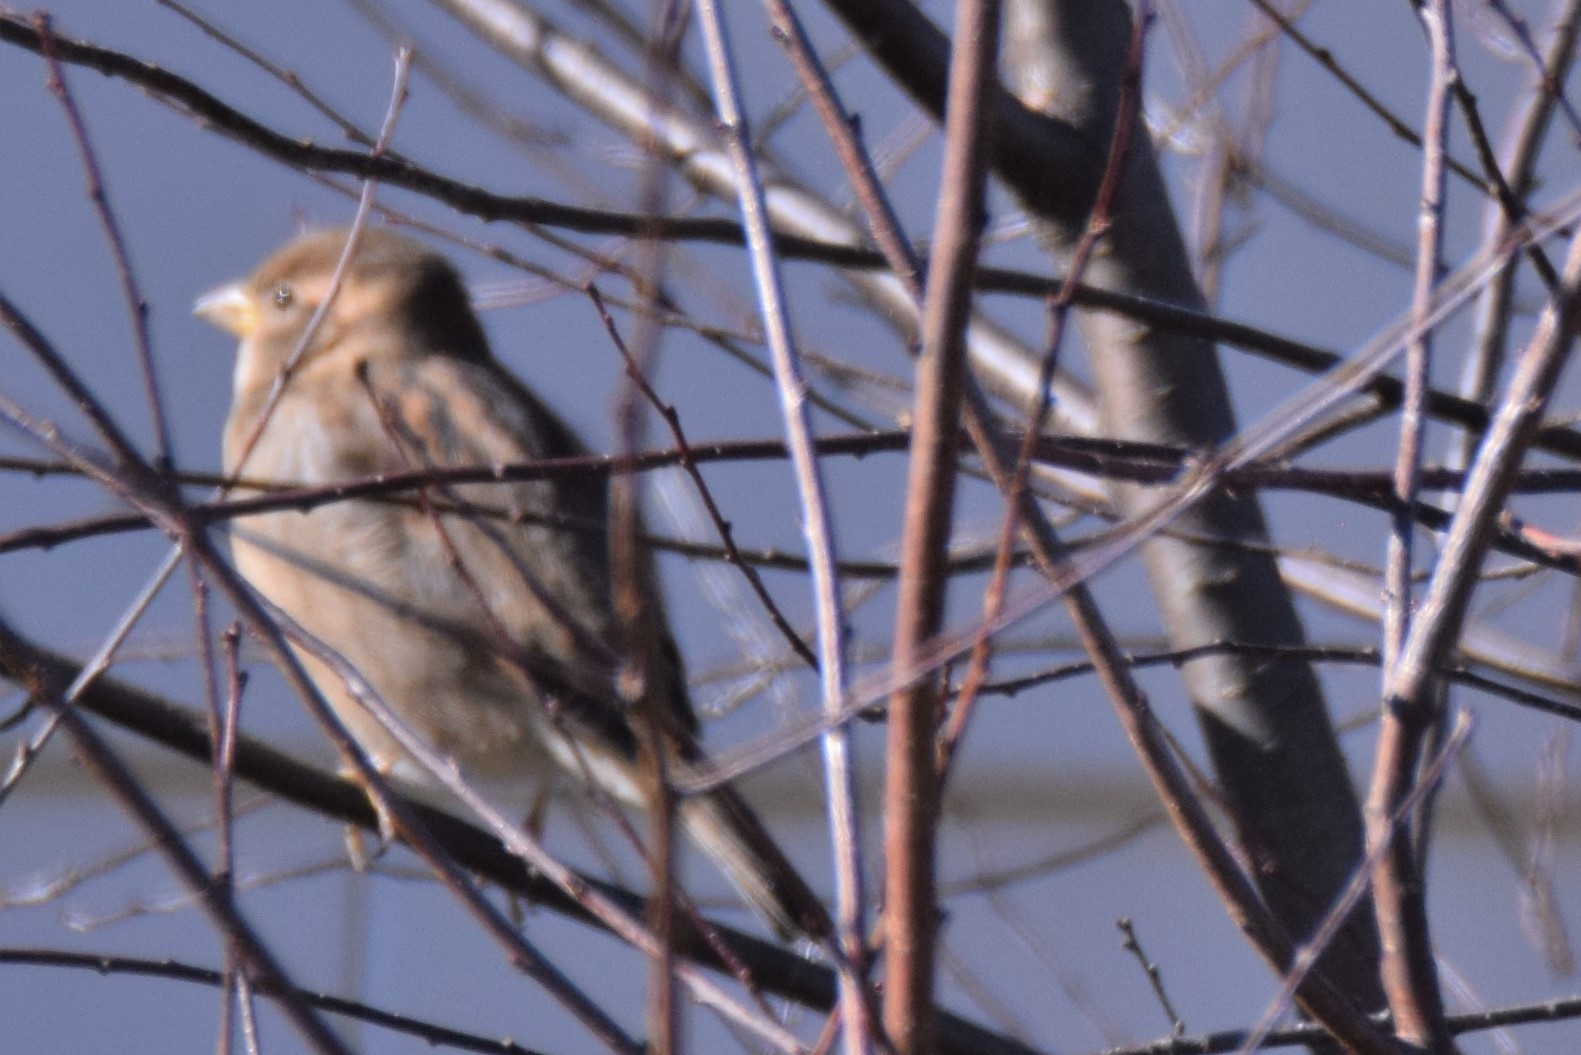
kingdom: Animalia
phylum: Chordata
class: Aves
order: Passeriformes
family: Passeridae
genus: Passer
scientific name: Passer domesticus
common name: House sparrow
